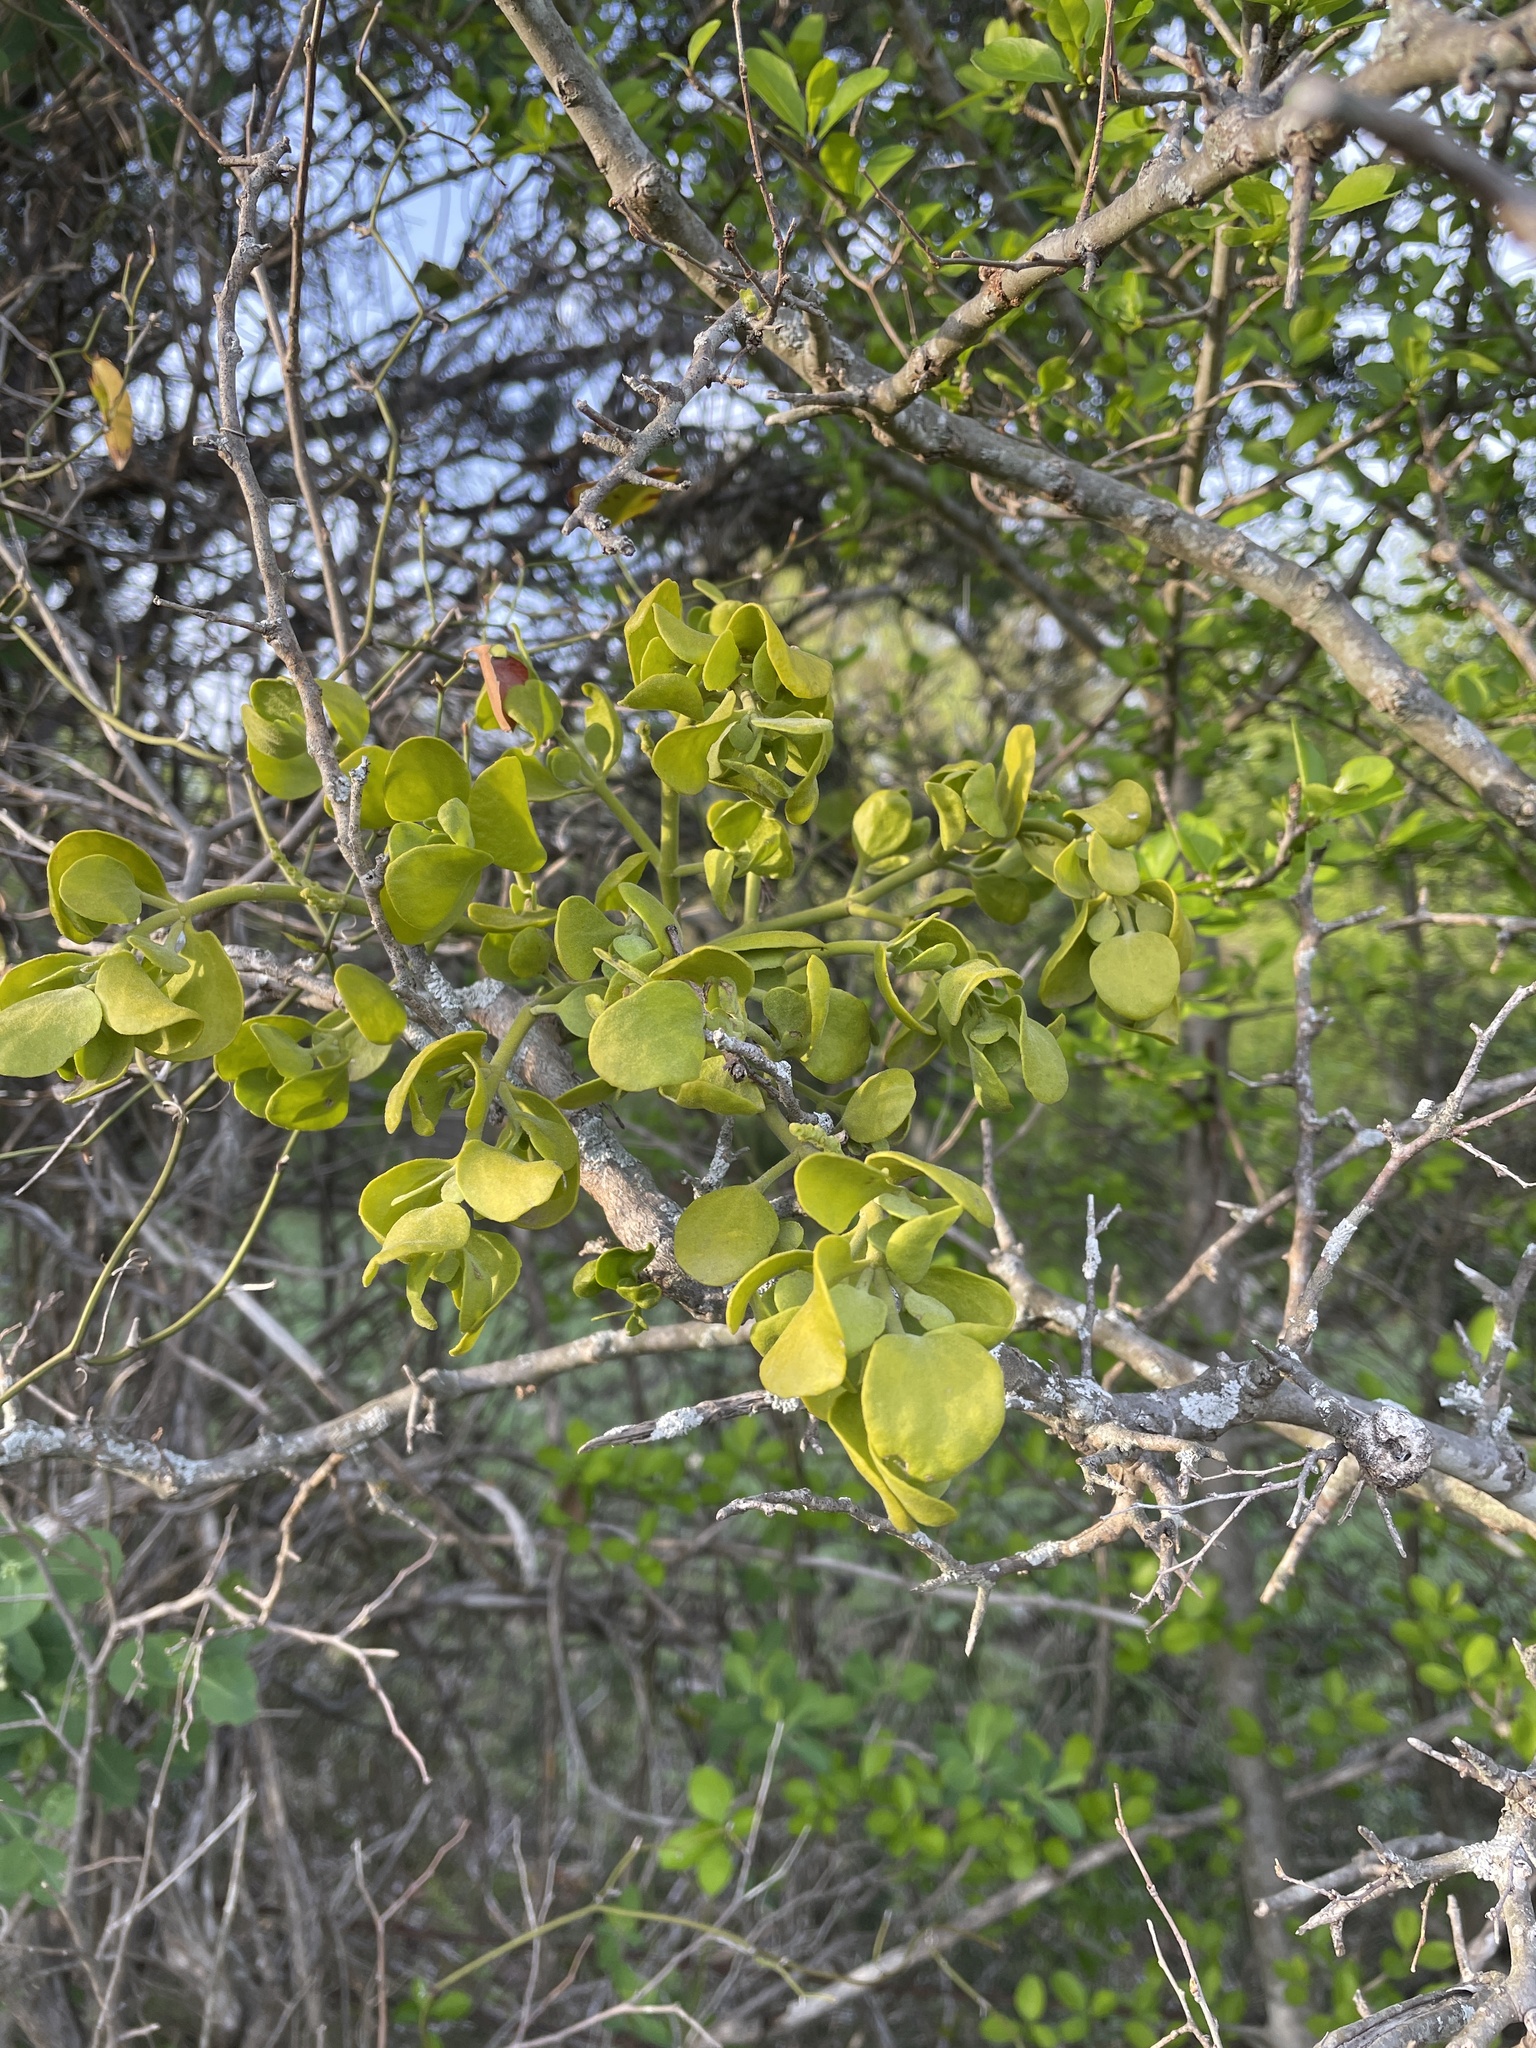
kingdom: Plantae
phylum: Tracheophyta
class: Magnoliopsida
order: Santalales
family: Viscaceae
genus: Phoradendron
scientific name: Phoradendron leucarpum
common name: Pacific mistletoe
